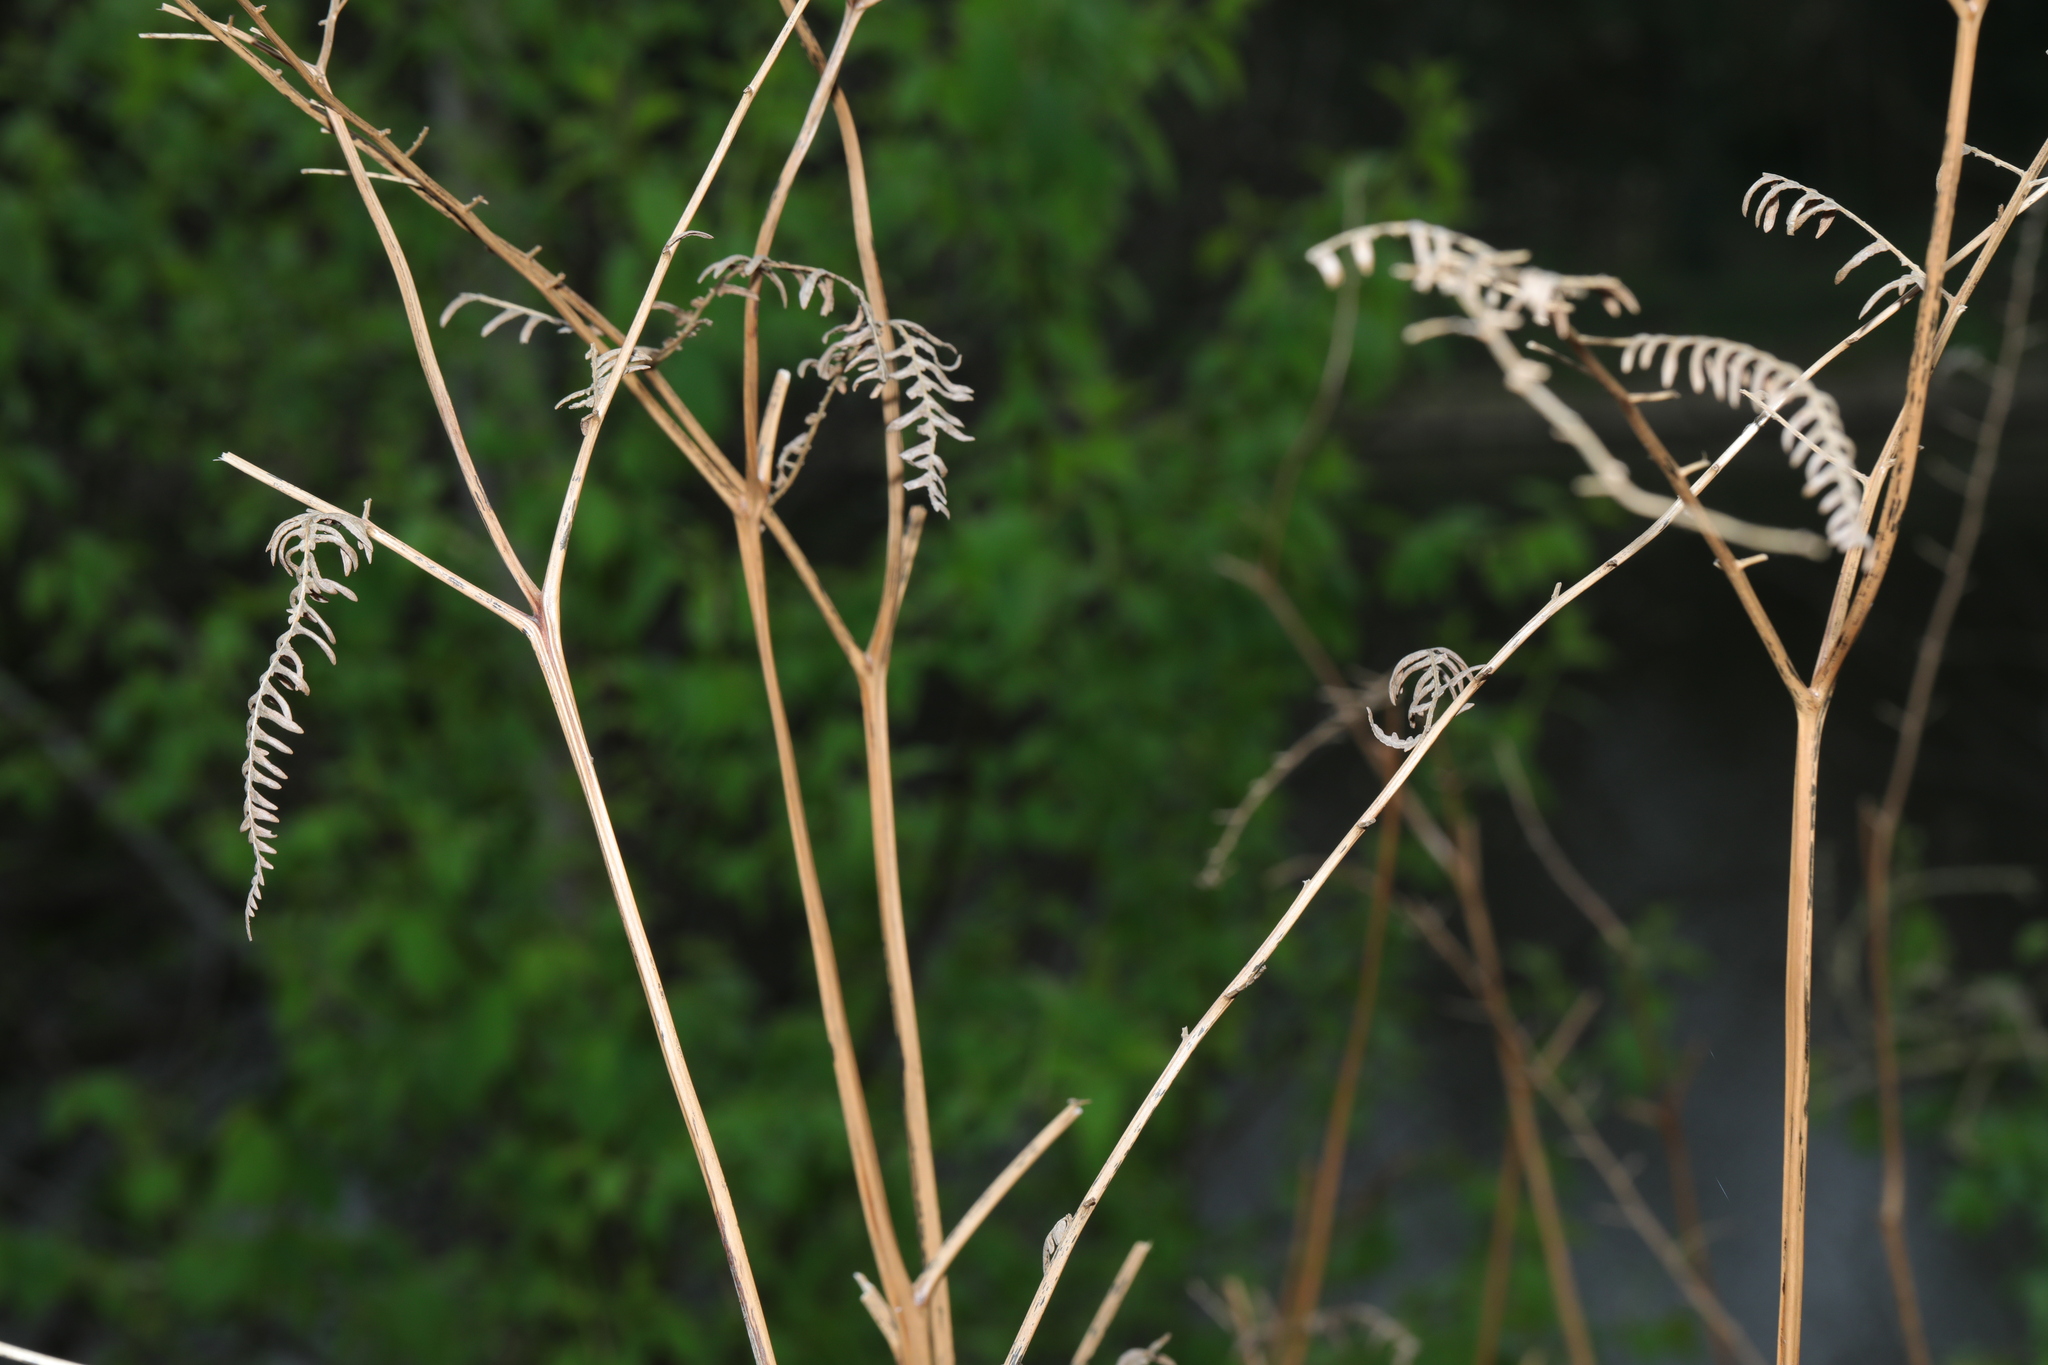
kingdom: Plantae
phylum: Tracheophyta
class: Polypodiopsida
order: Polypodiales
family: Dennstaedtiaceae
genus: Pteridium
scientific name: Pteridium aquilinum
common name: Bracken
